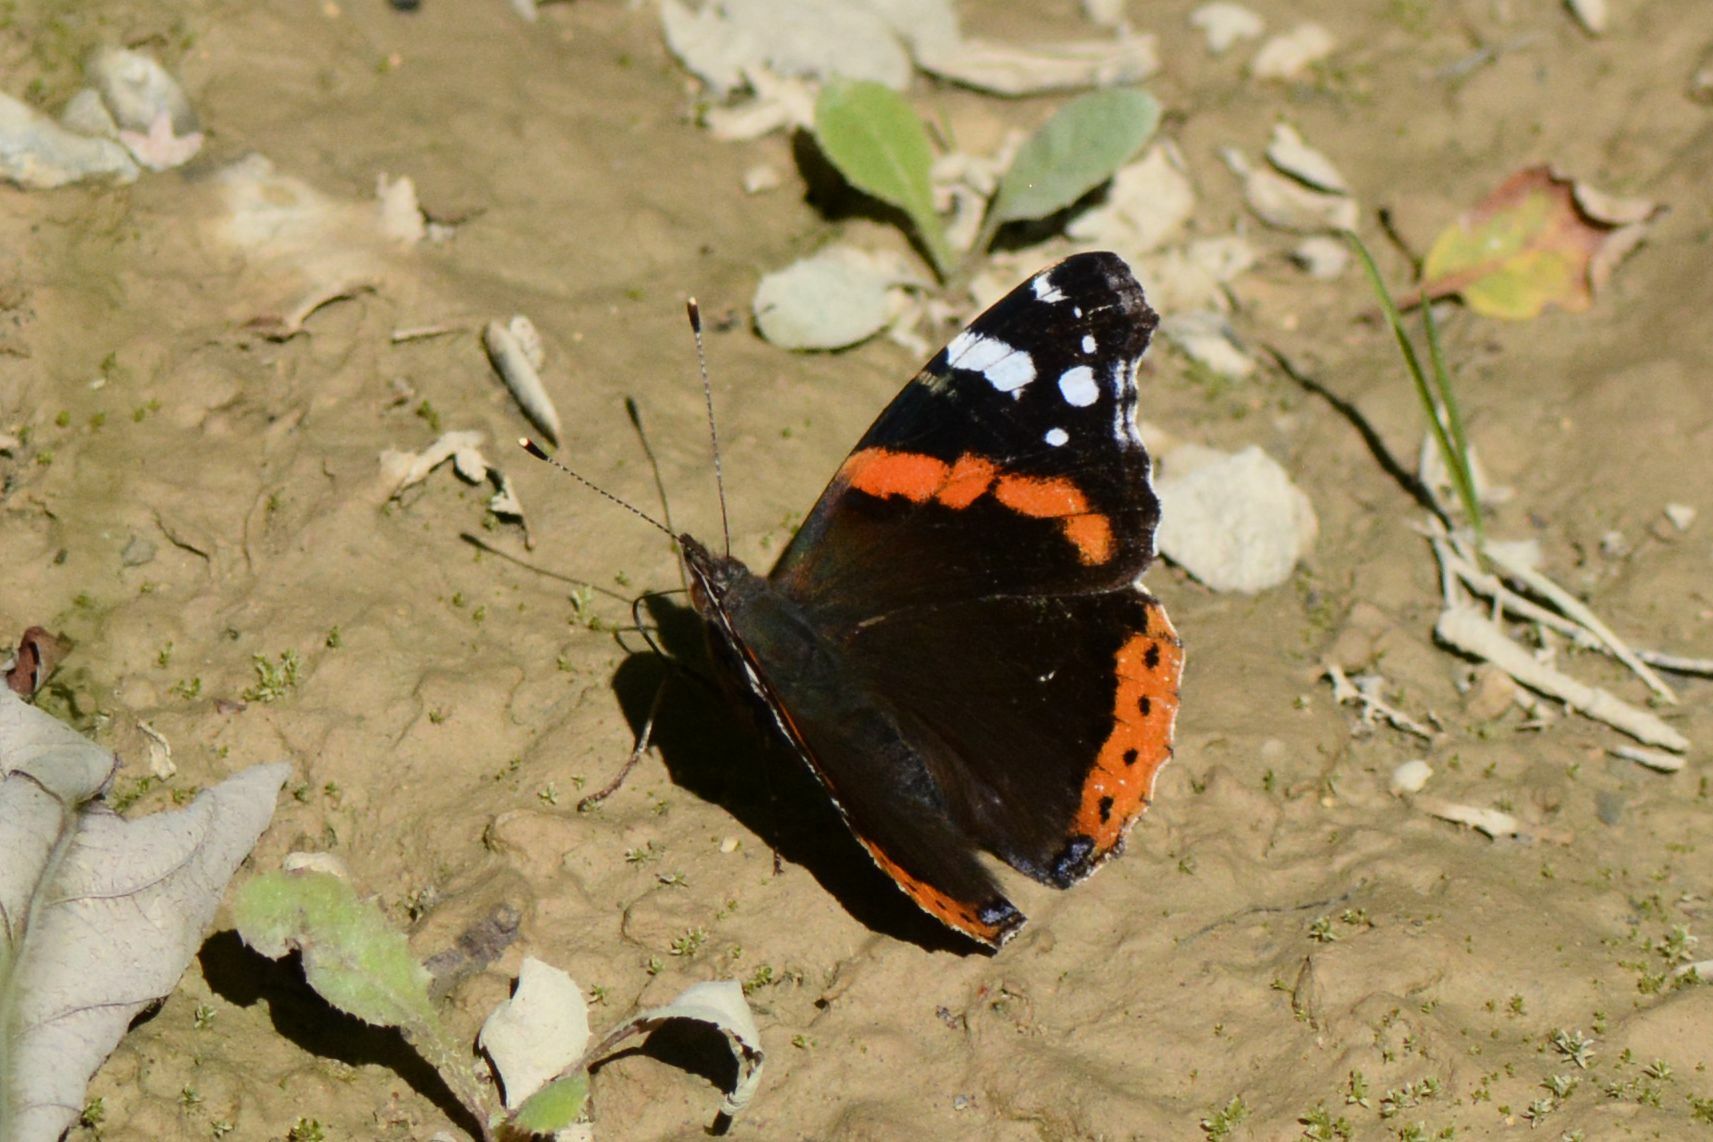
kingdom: Animalia
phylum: Arthropoda
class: Insecta
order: Lepidoptera
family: Nymphalidae
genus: Vanessa
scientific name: Vanessa atalanta
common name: Red admiral
